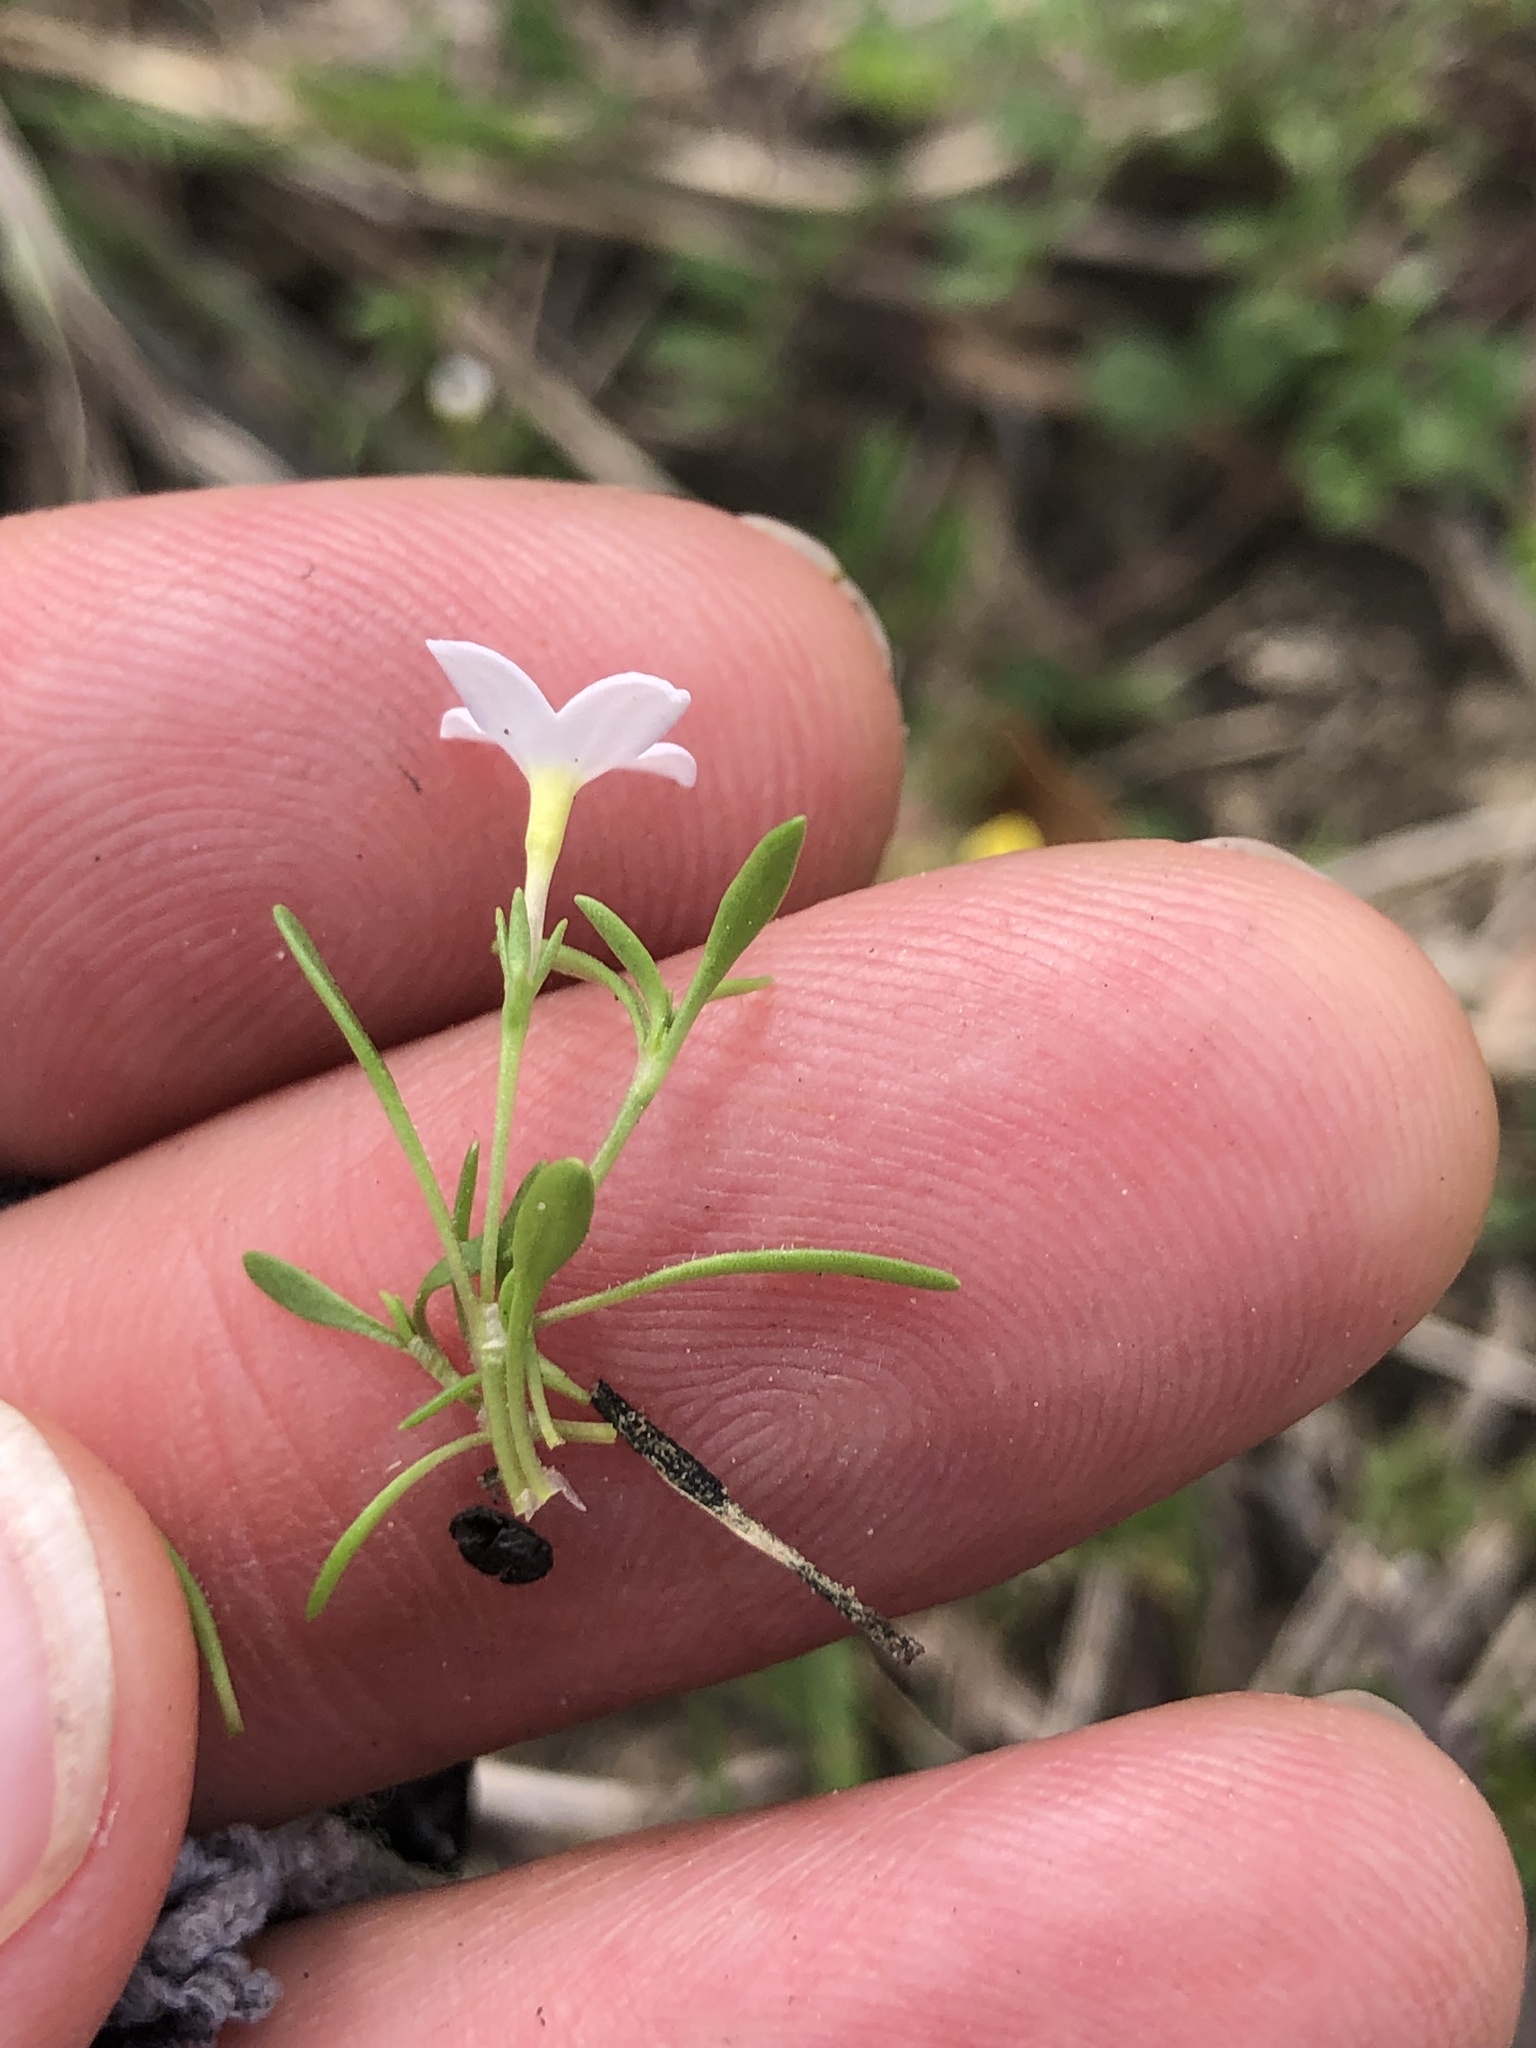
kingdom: Plantae
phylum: Tracheophyta
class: Magnoliopsida
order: Gentianales
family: Rubiaceae
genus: Houstonia
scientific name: Houstonia rosea
